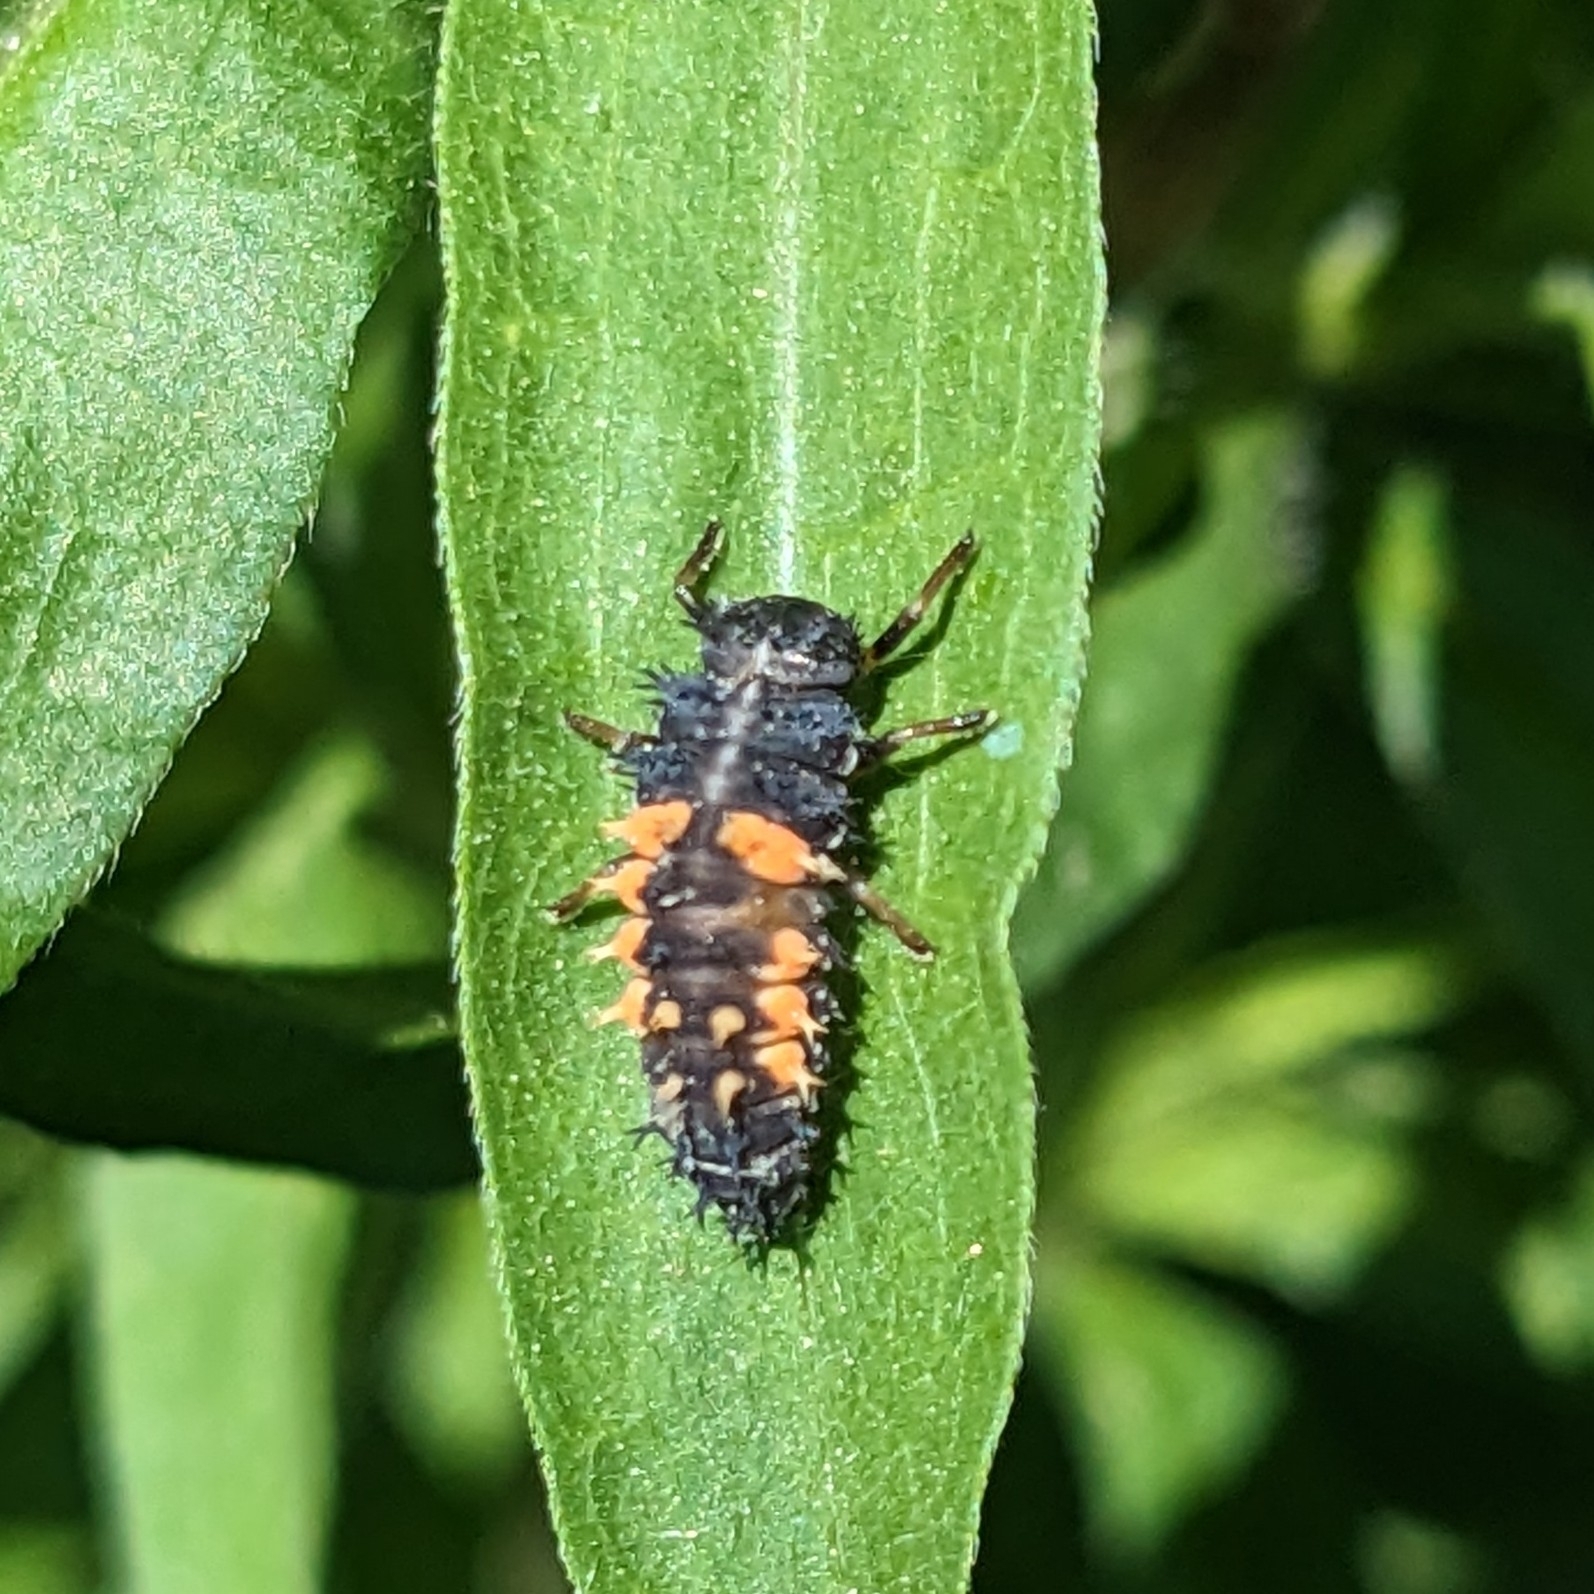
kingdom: Animalia
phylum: Arthropoda
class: Insecta
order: Coleoptera
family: Coccinellidae
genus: Harmonia
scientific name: Harmonia axyridis
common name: Harlequin ladybird
